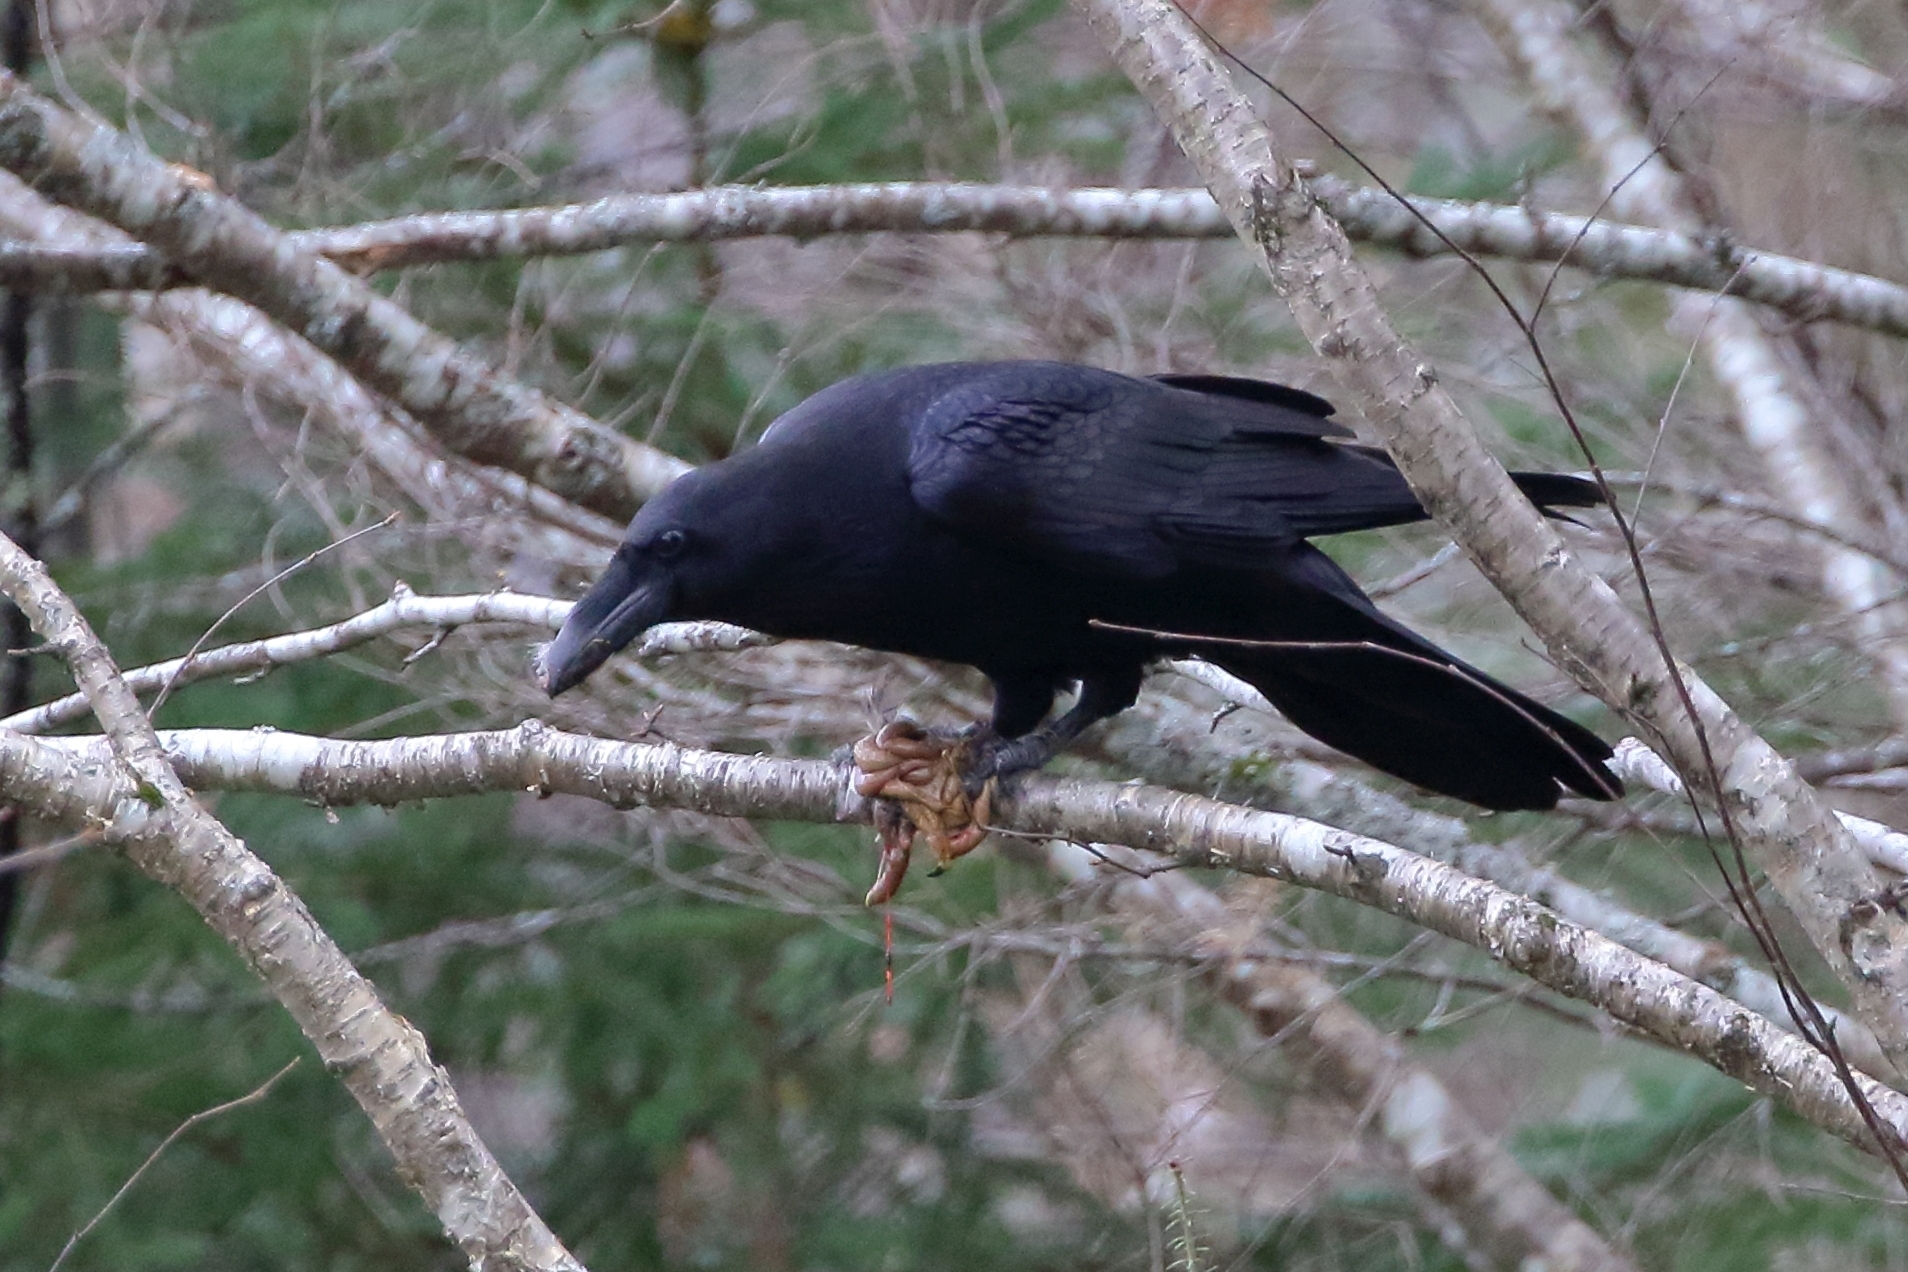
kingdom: Animalia
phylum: Chordata
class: Aves
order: Galliformes
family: Phasianidae
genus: Bonasa
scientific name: Bonasa umbellus
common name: Ruffed grouse
